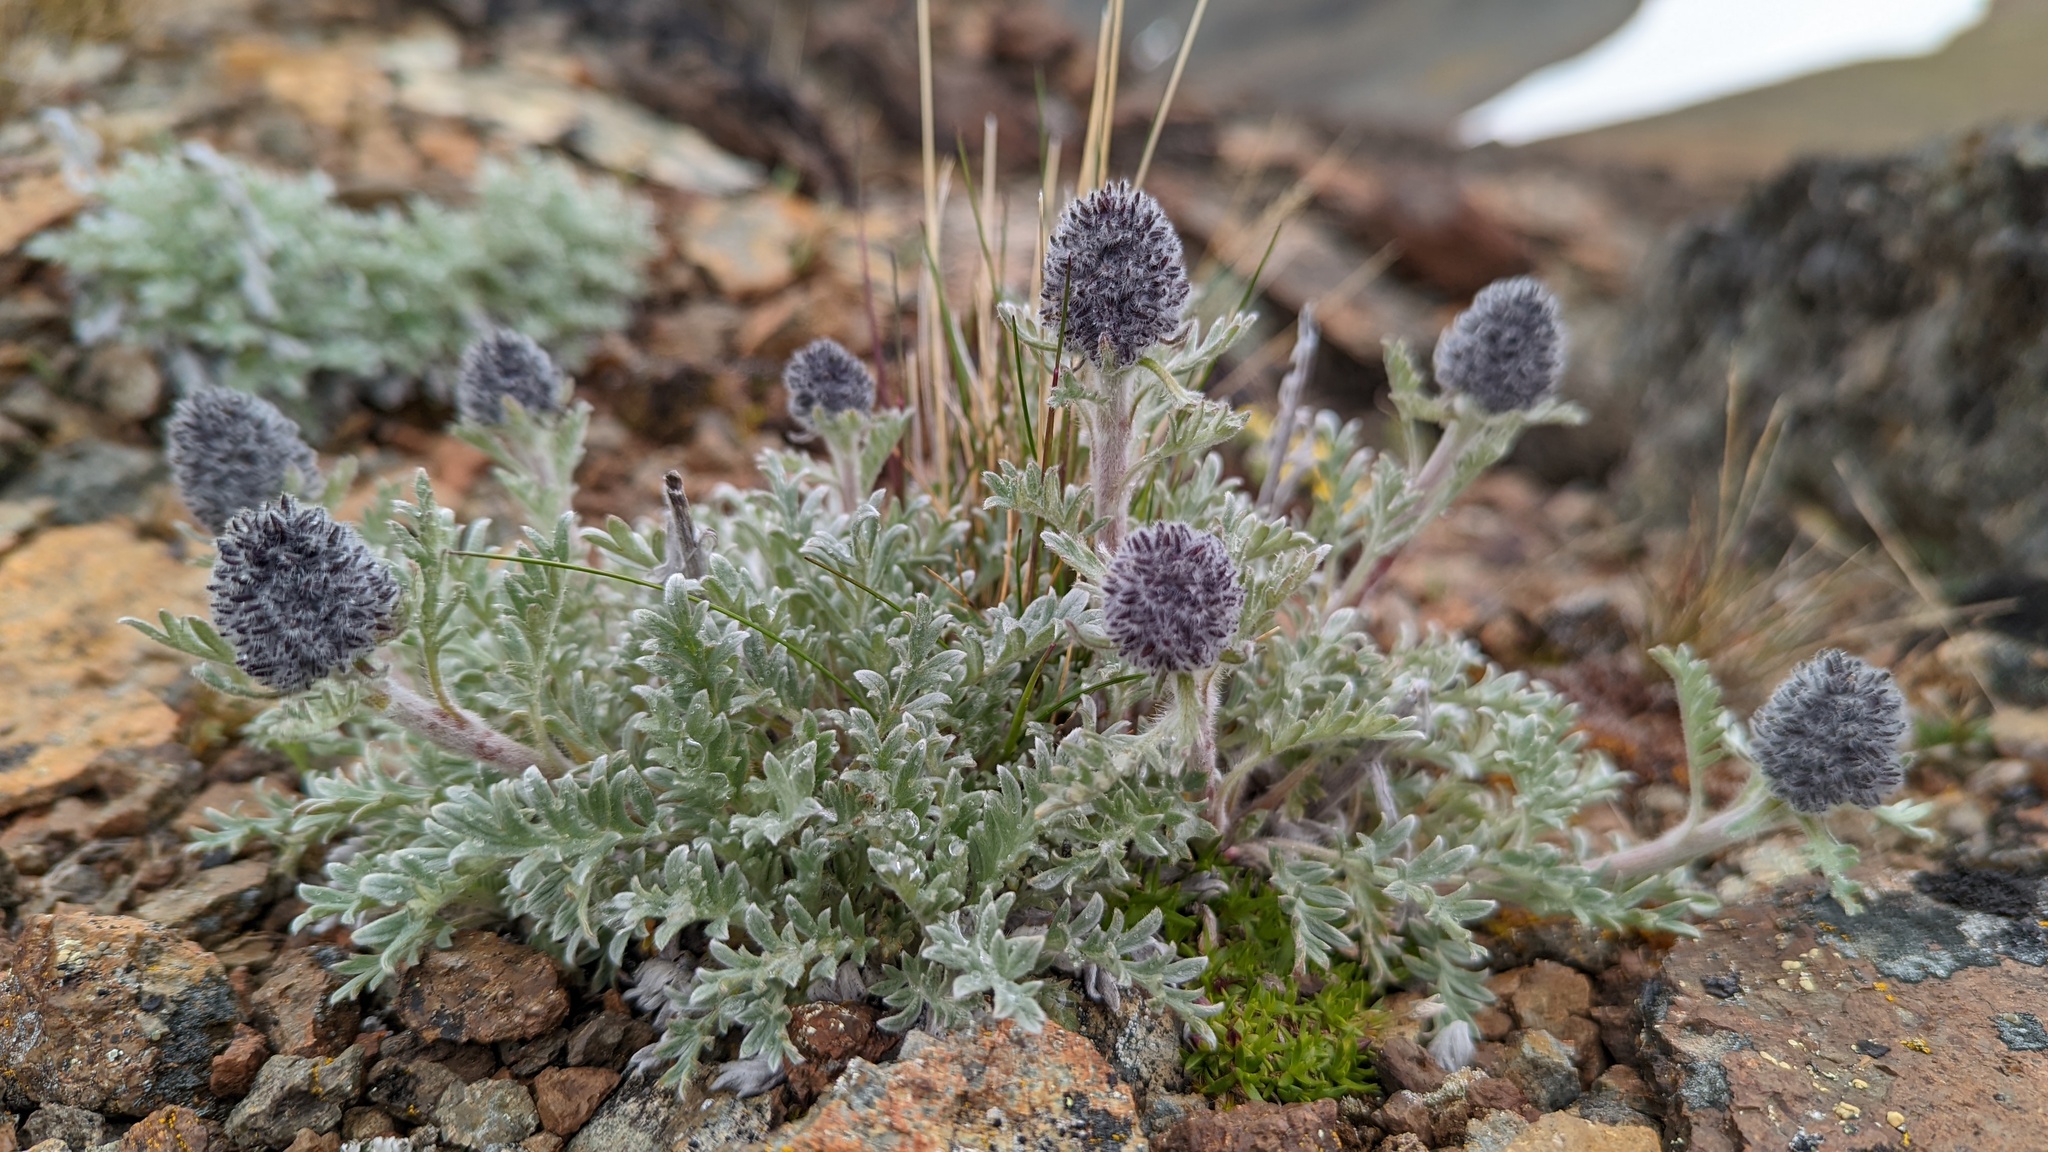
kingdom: Plantae
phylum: Tracheophyta
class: Magnoliopsida
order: Boraginales
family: Hydrophyllaceae
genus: Phacelia
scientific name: Phacelia sericea
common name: Silky phacelia
